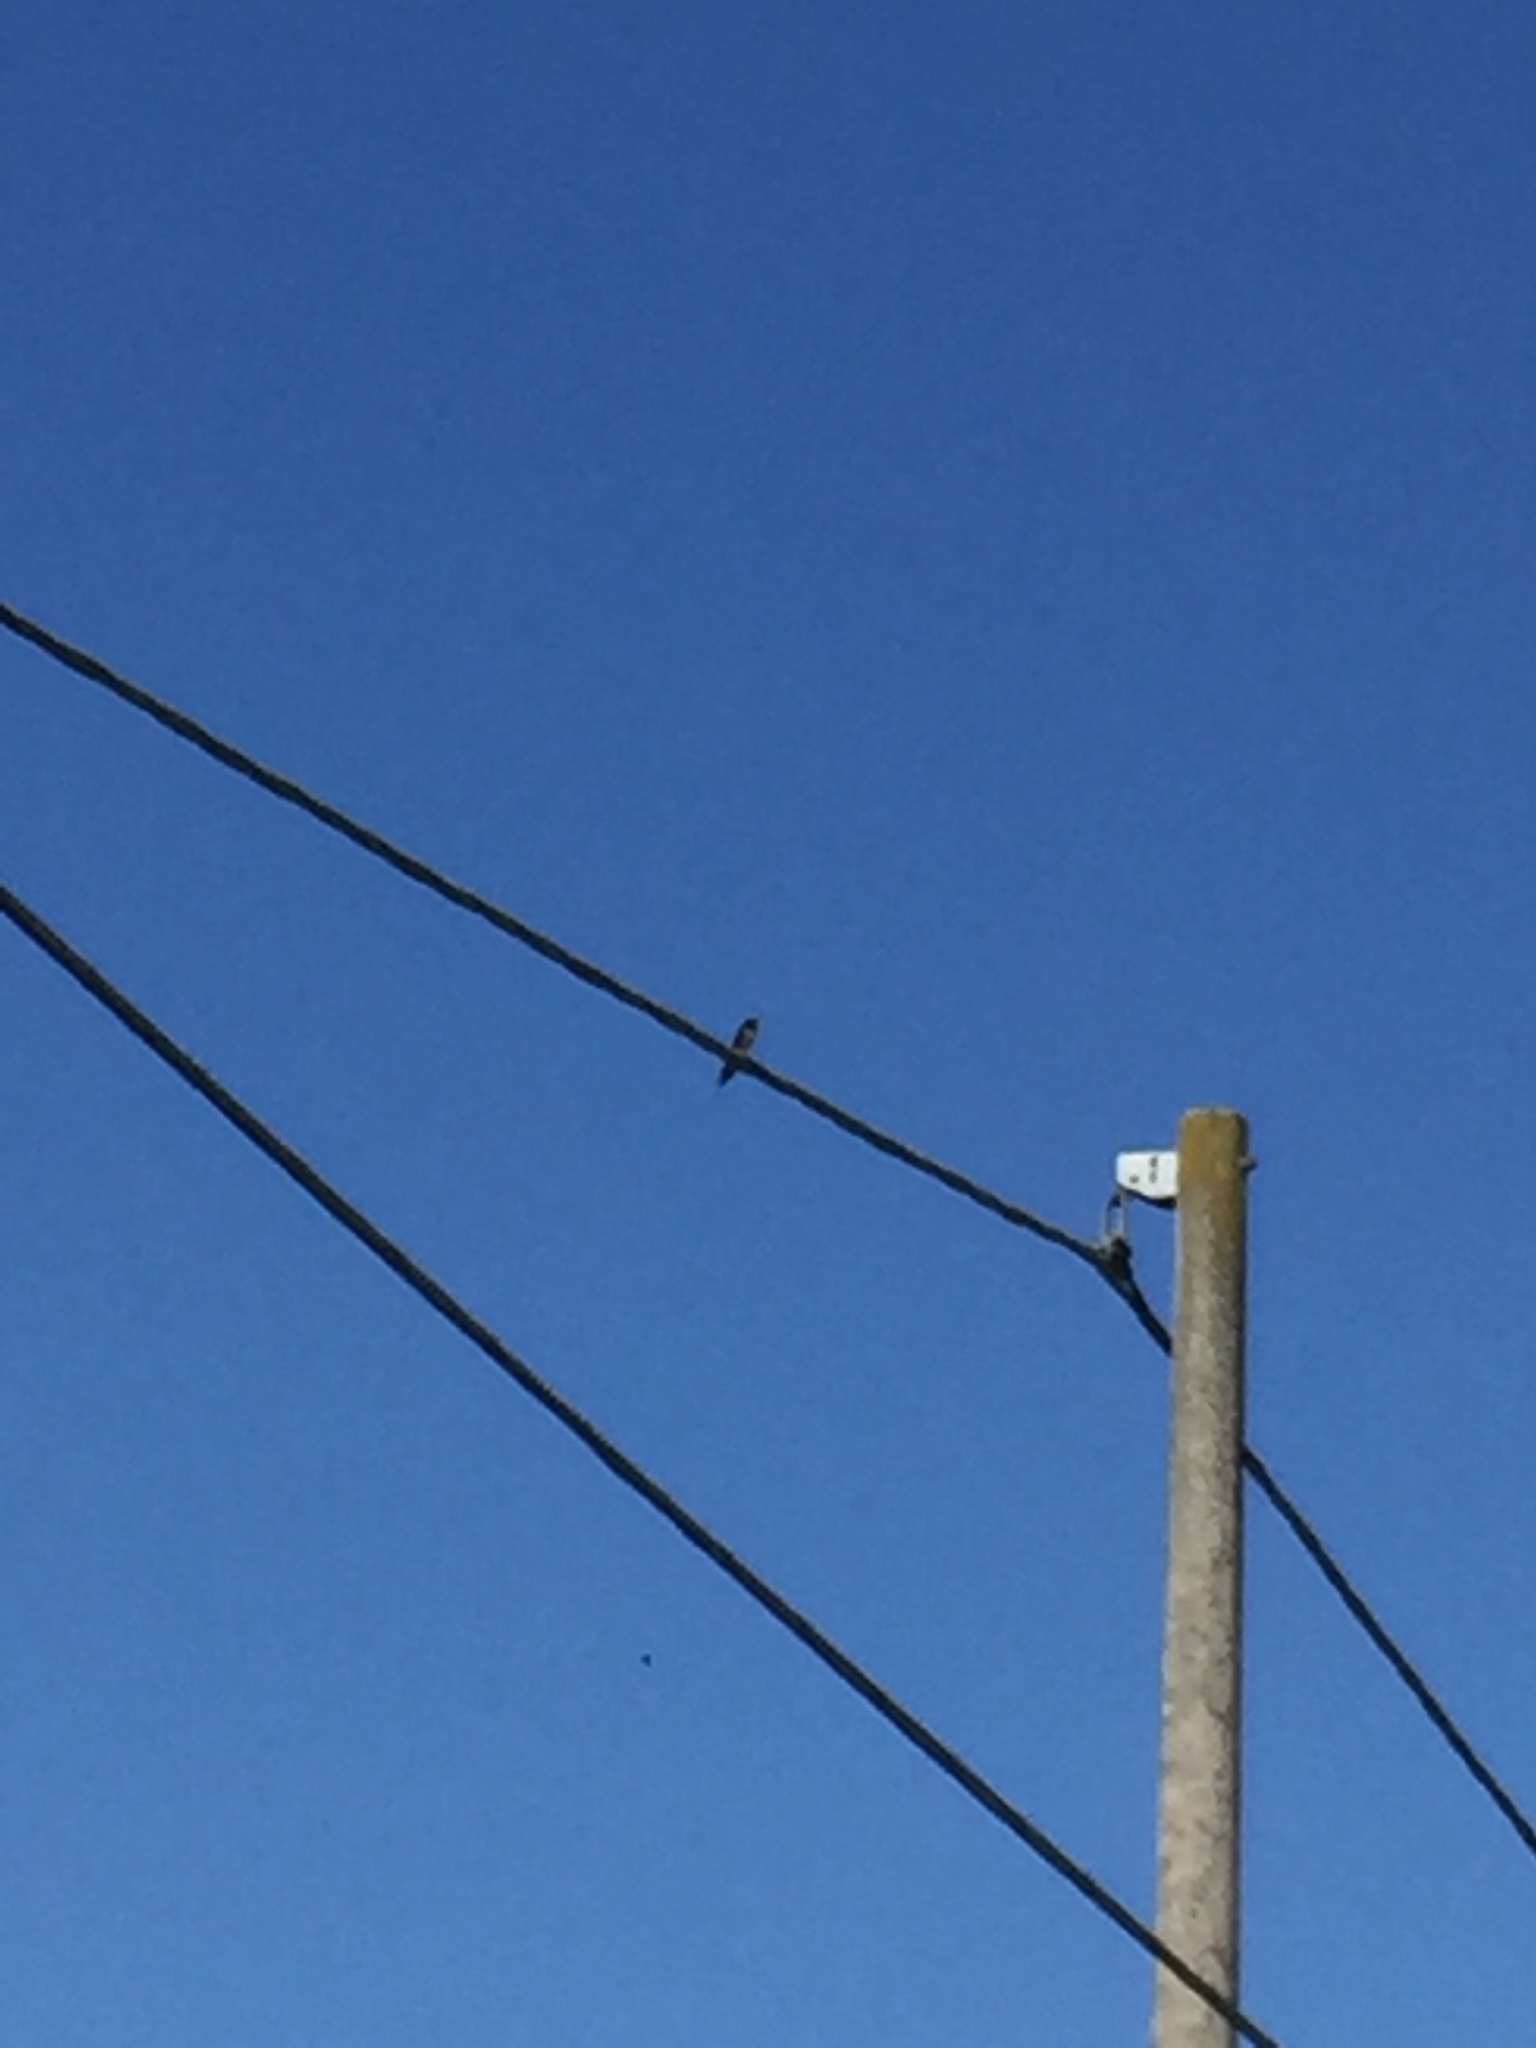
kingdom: Animalia
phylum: Chordata
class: Aves
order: Passeriformes
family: Hirundinidae
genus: Hirundo
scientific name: Hirundo rustica
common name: Barn swallow
